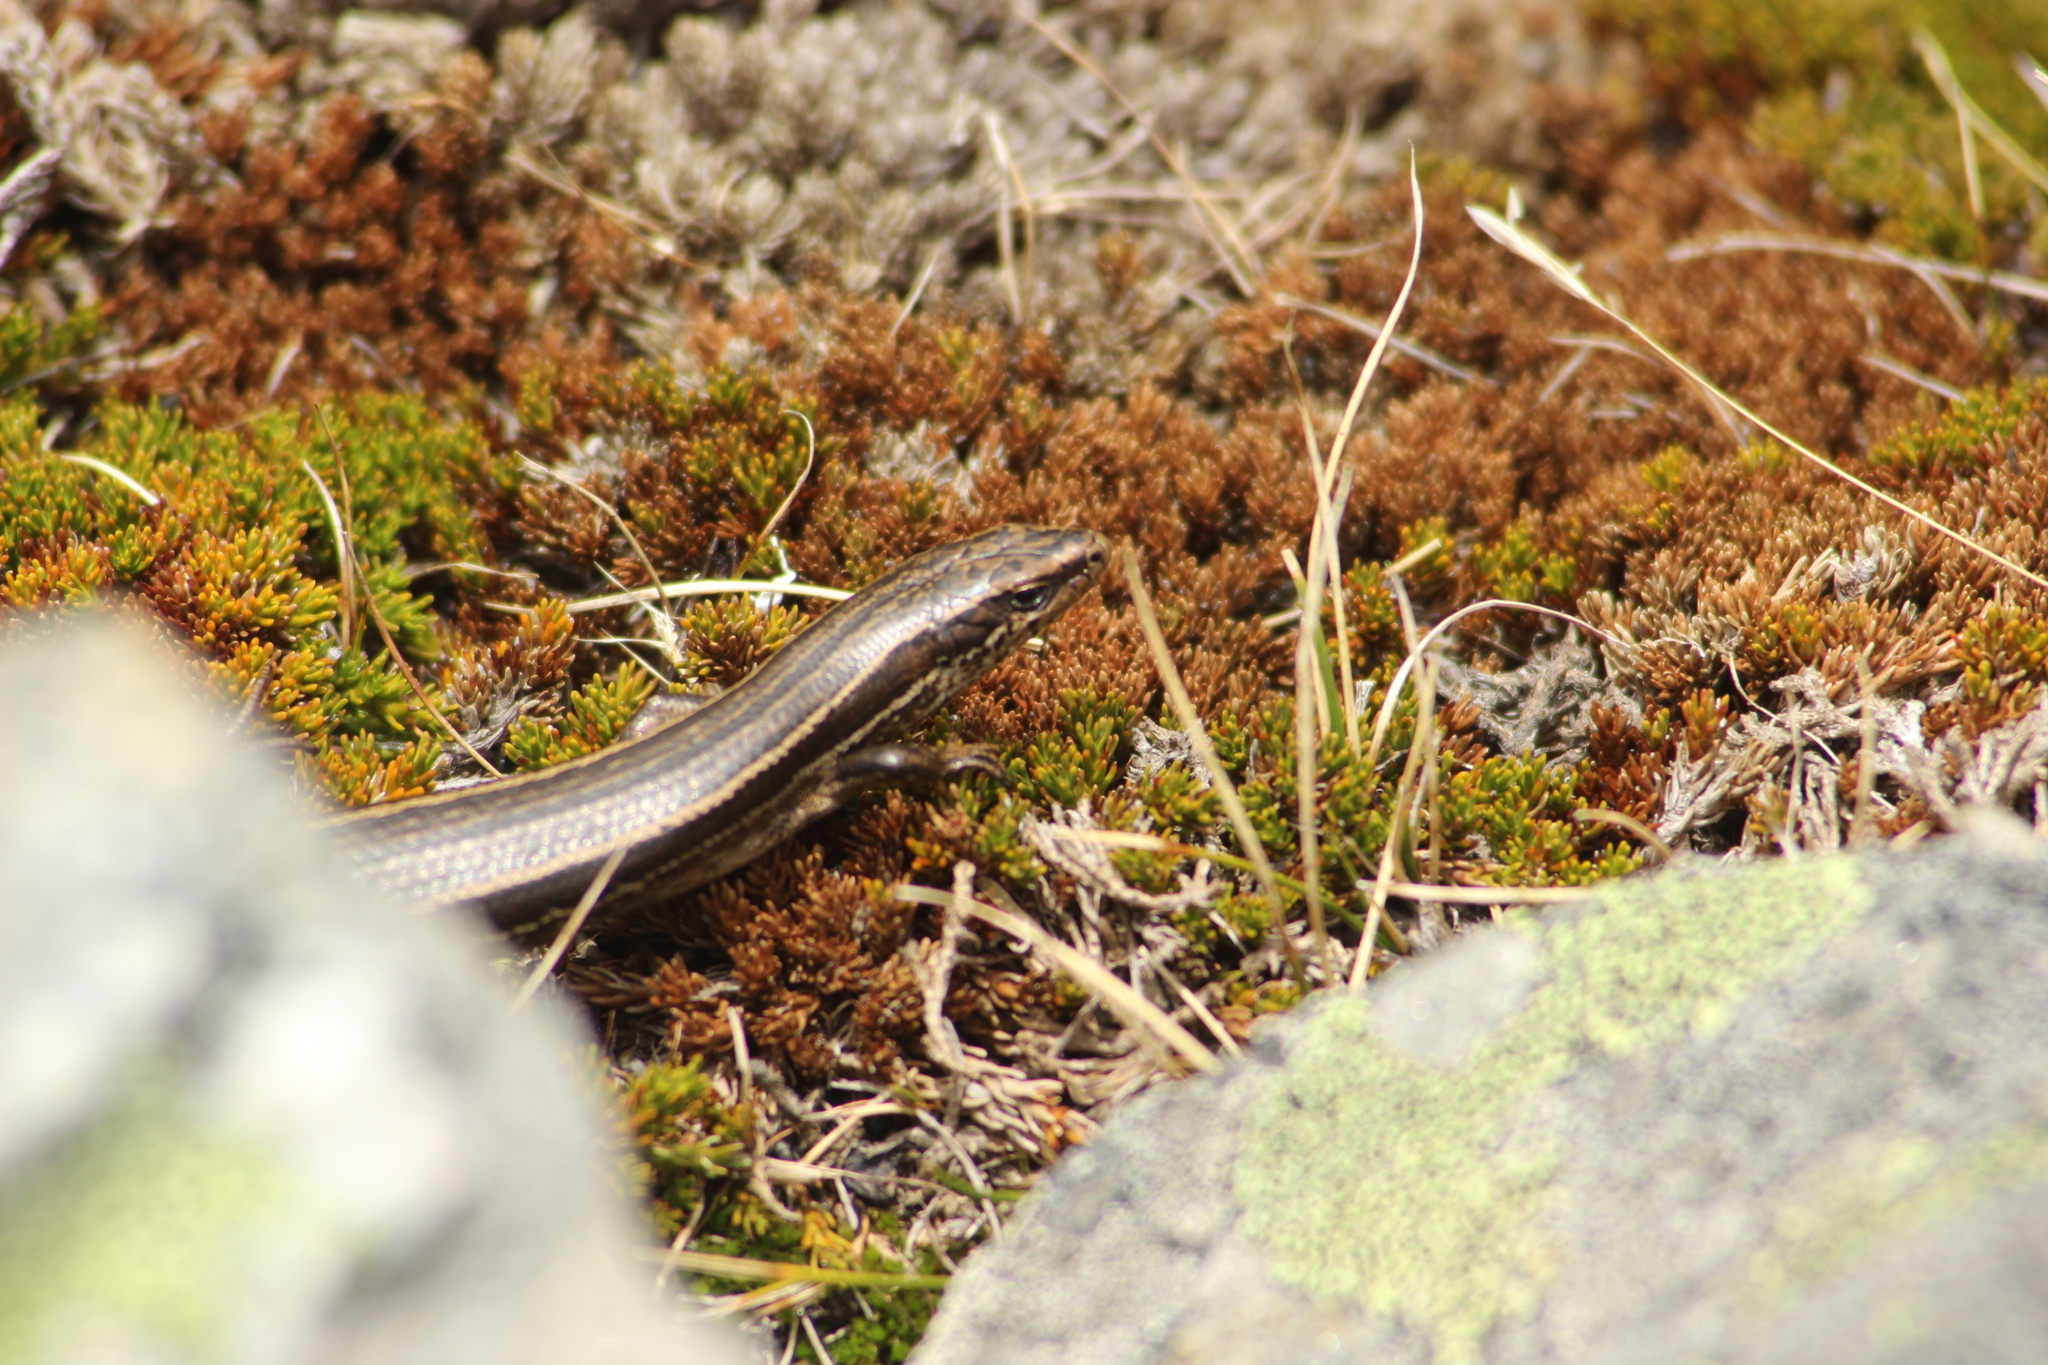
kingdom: Animalia
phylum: Chordata
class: Squamata
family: Scincidae
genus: Oligosoma
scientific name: Oligosoma toka
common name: Nevis skink
